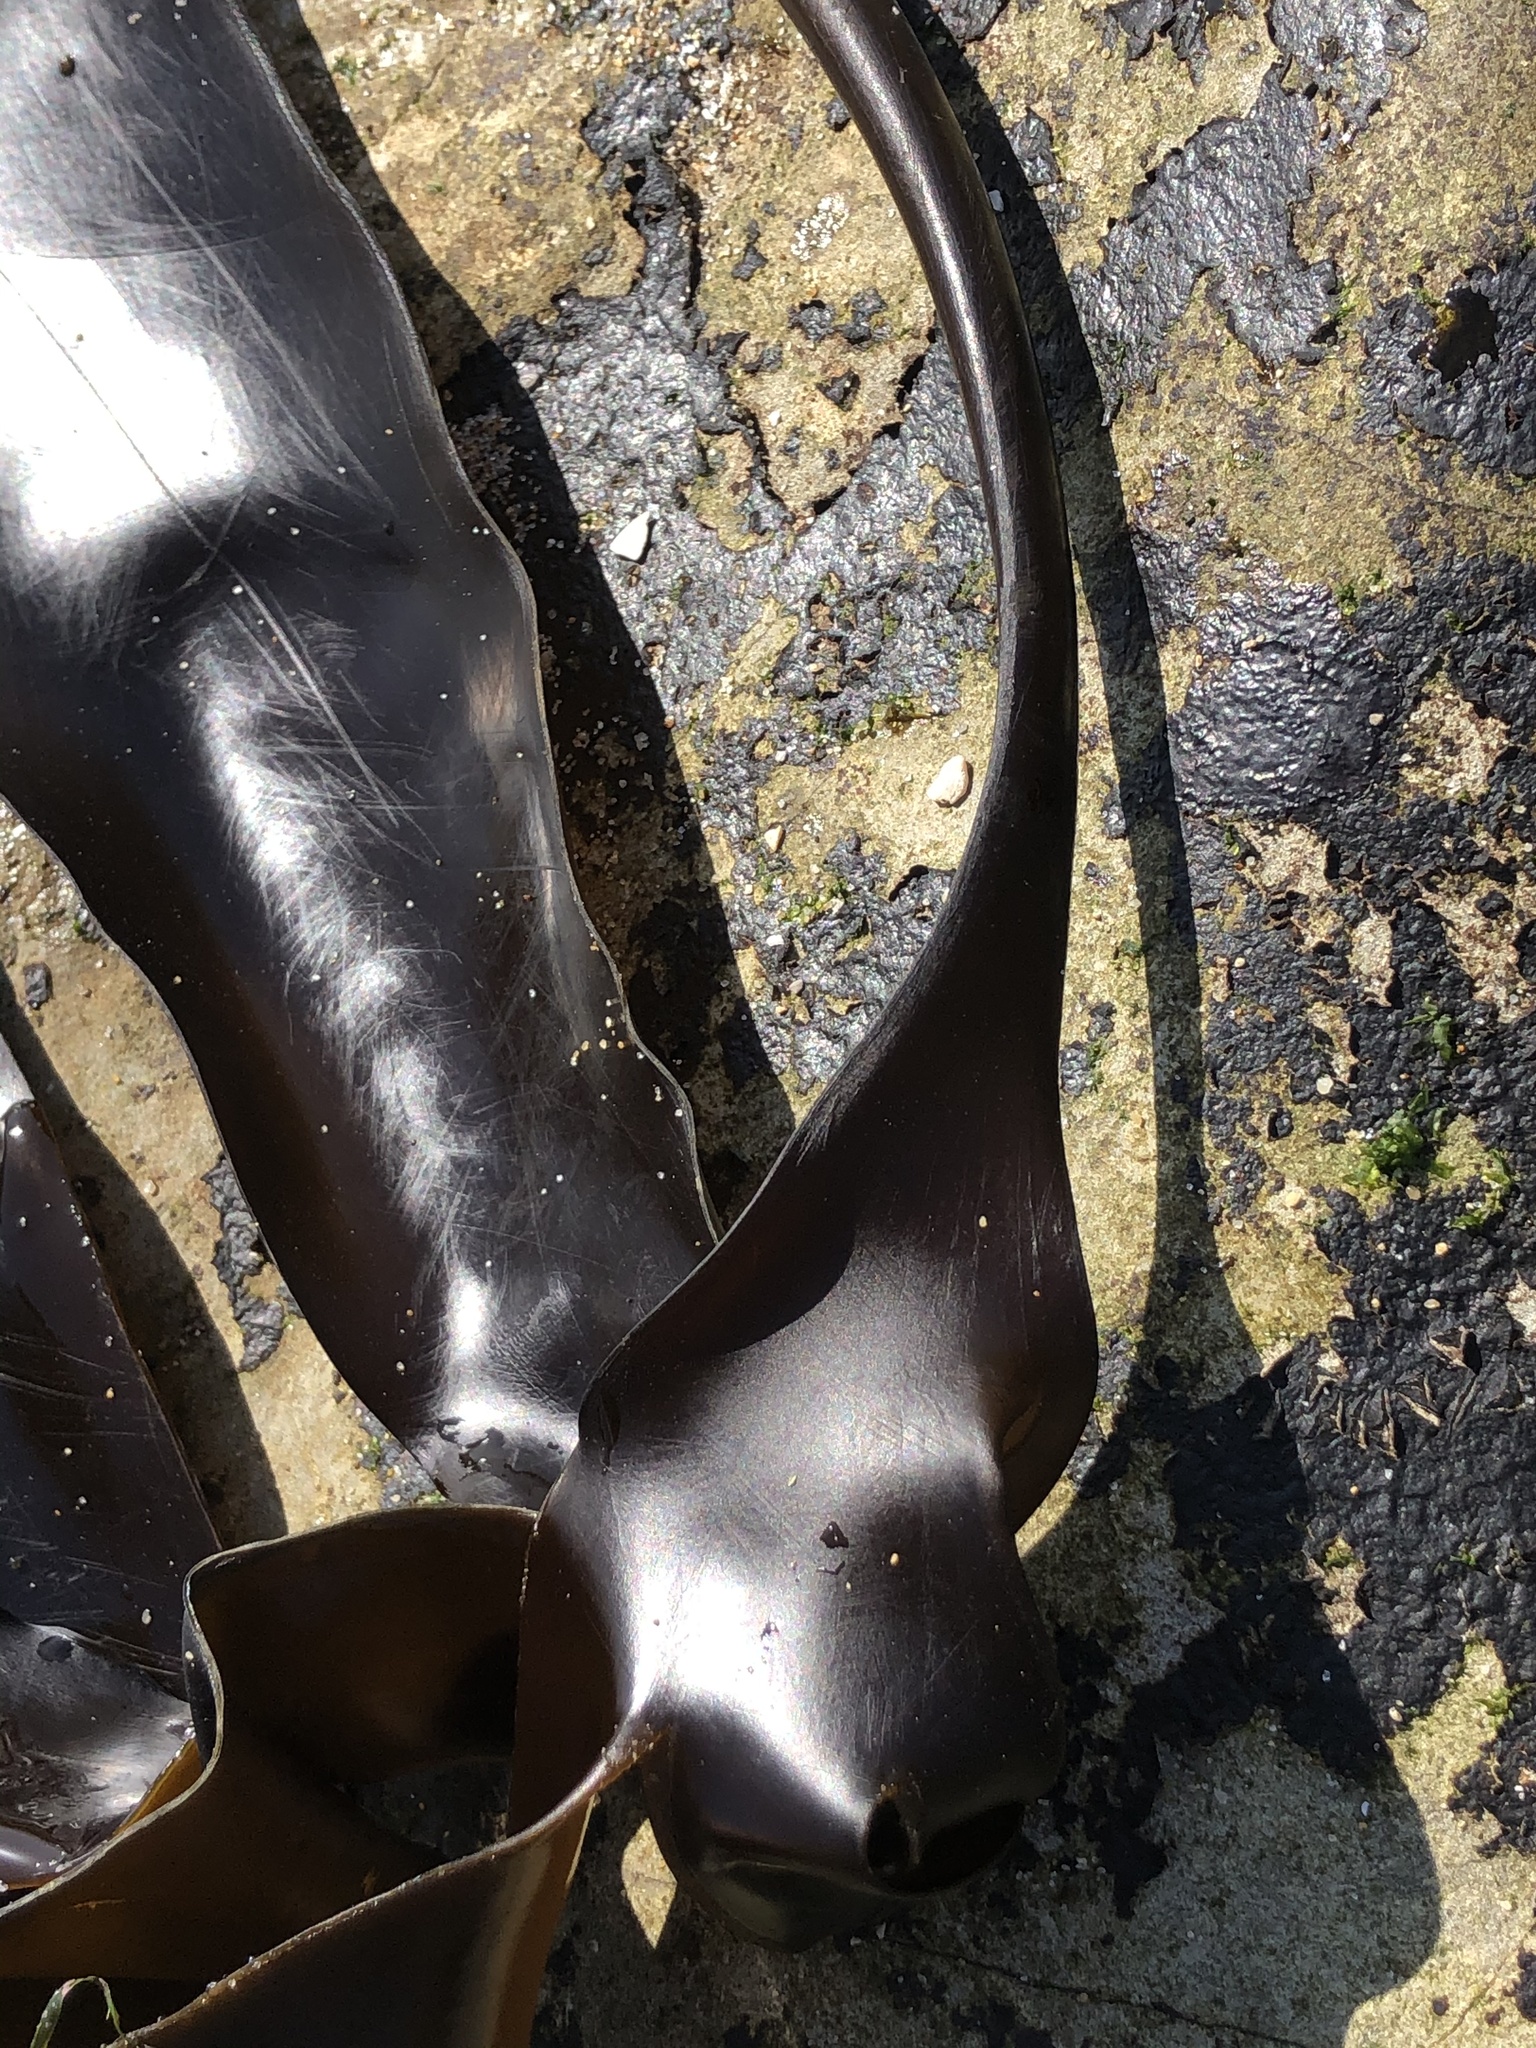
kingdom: Chromista
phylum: Ochrophyta
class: Phaeophyceae
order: Laminariales
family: Laminariaceae
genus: Laminaria
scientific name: Laminaria setchellii
